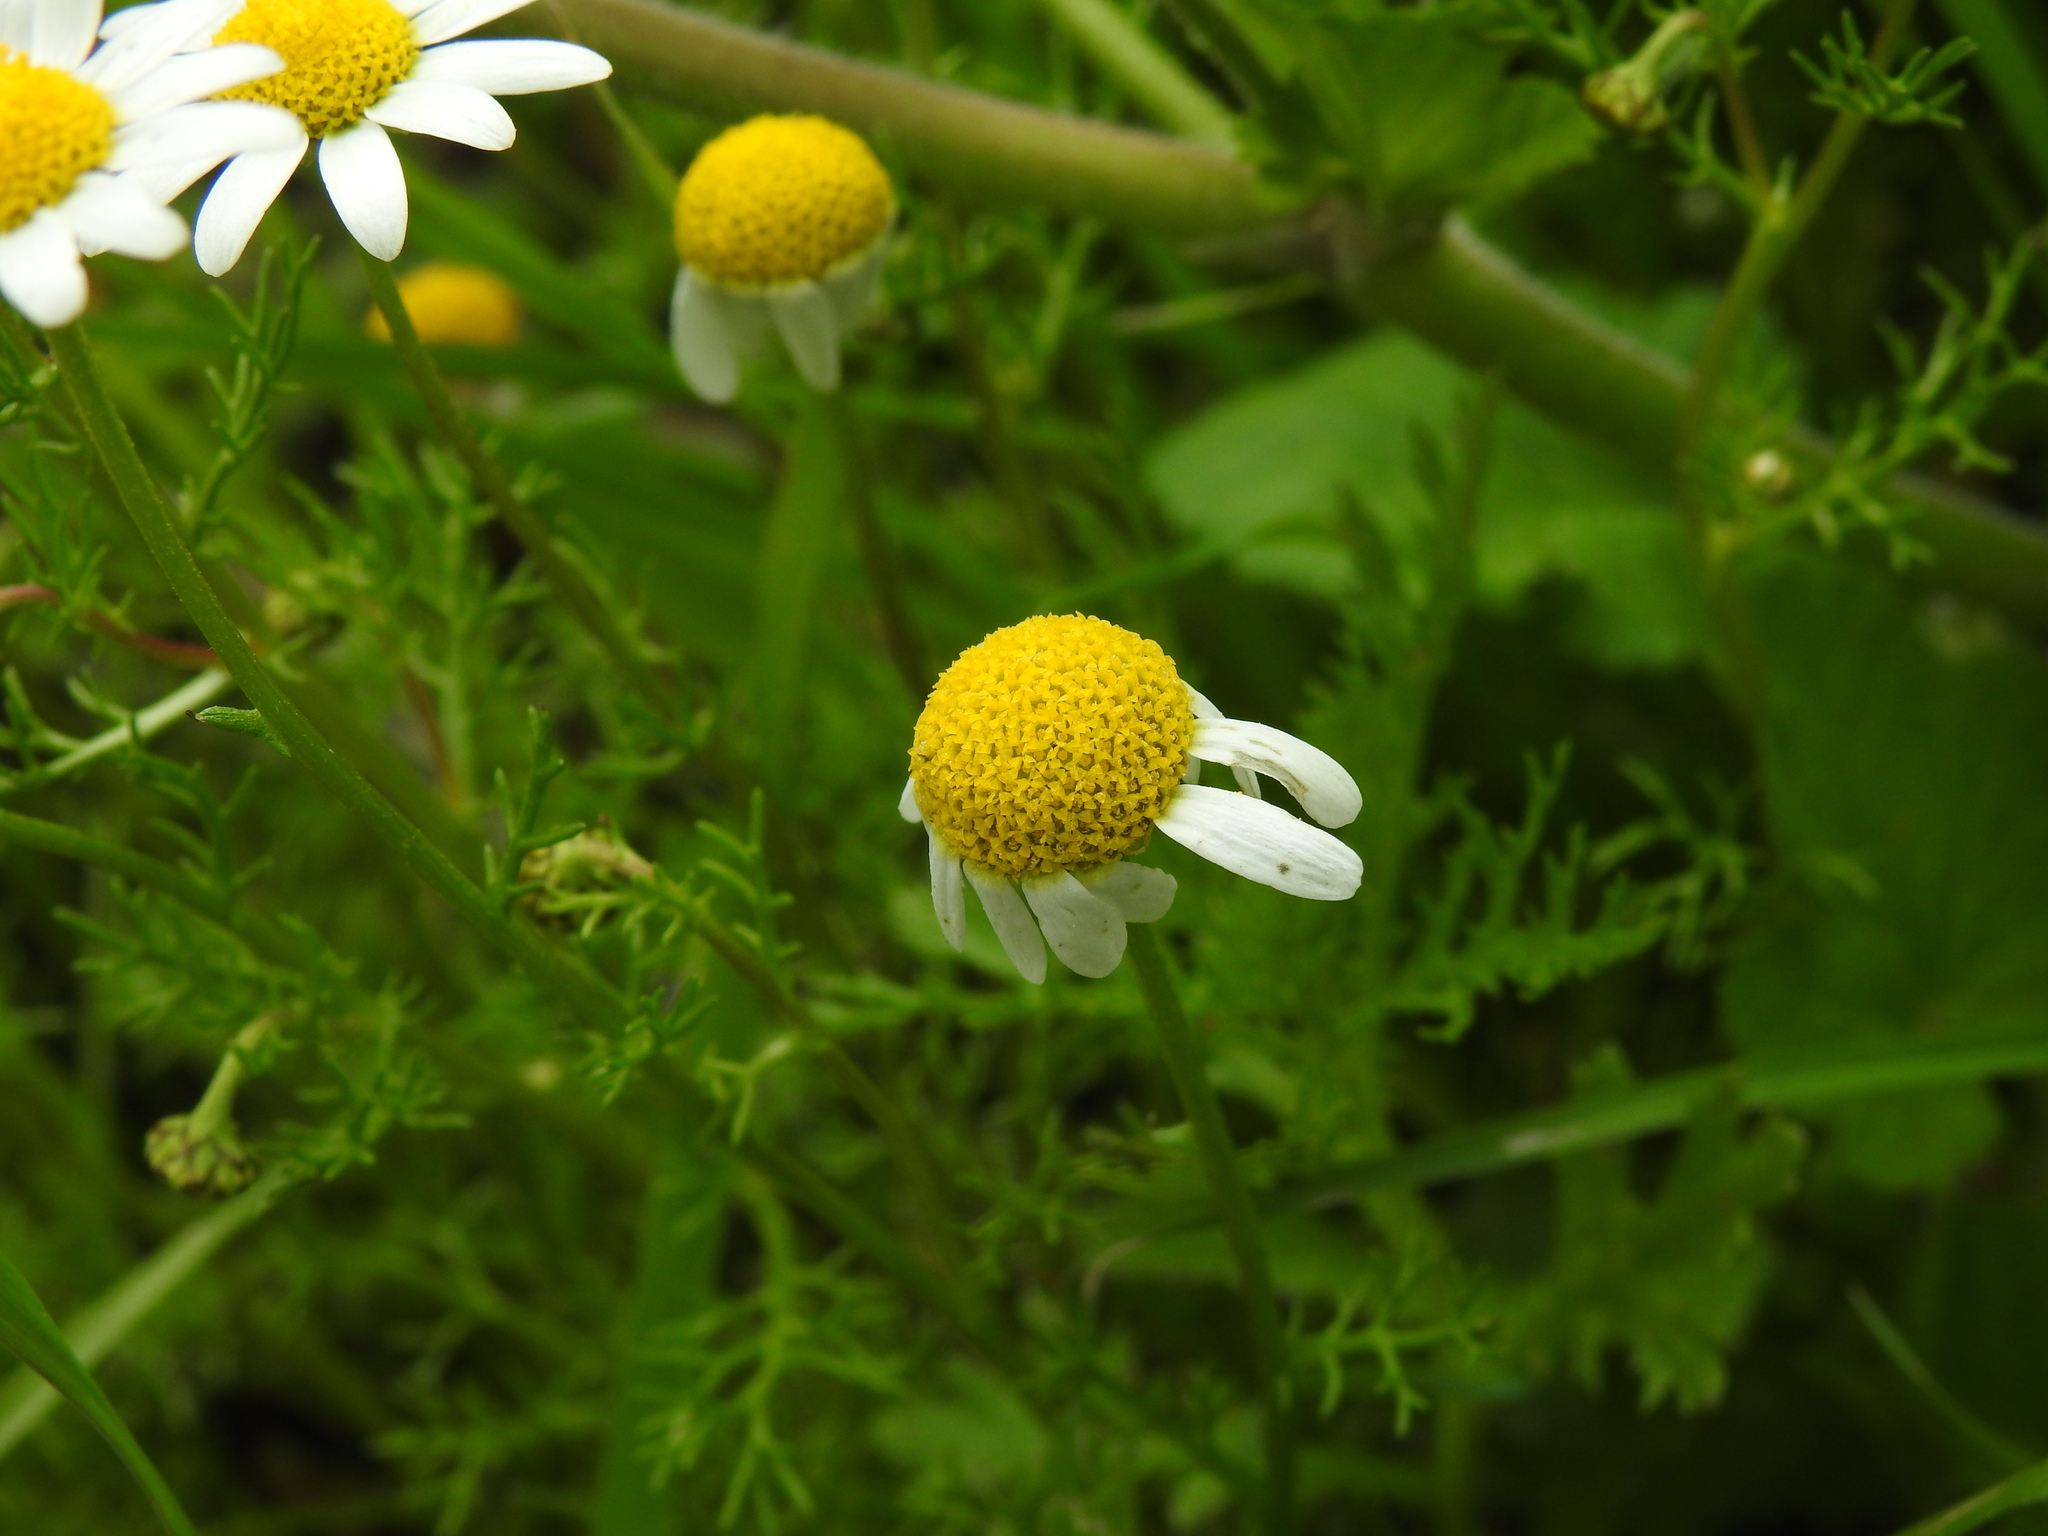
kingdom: Plantae
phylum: Tracheophyta
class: Magnoliopsida
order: Asterales
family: Asteraceae
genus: Chamaemelum
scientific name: Chamaemelum fuscatum
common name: Chamomile
